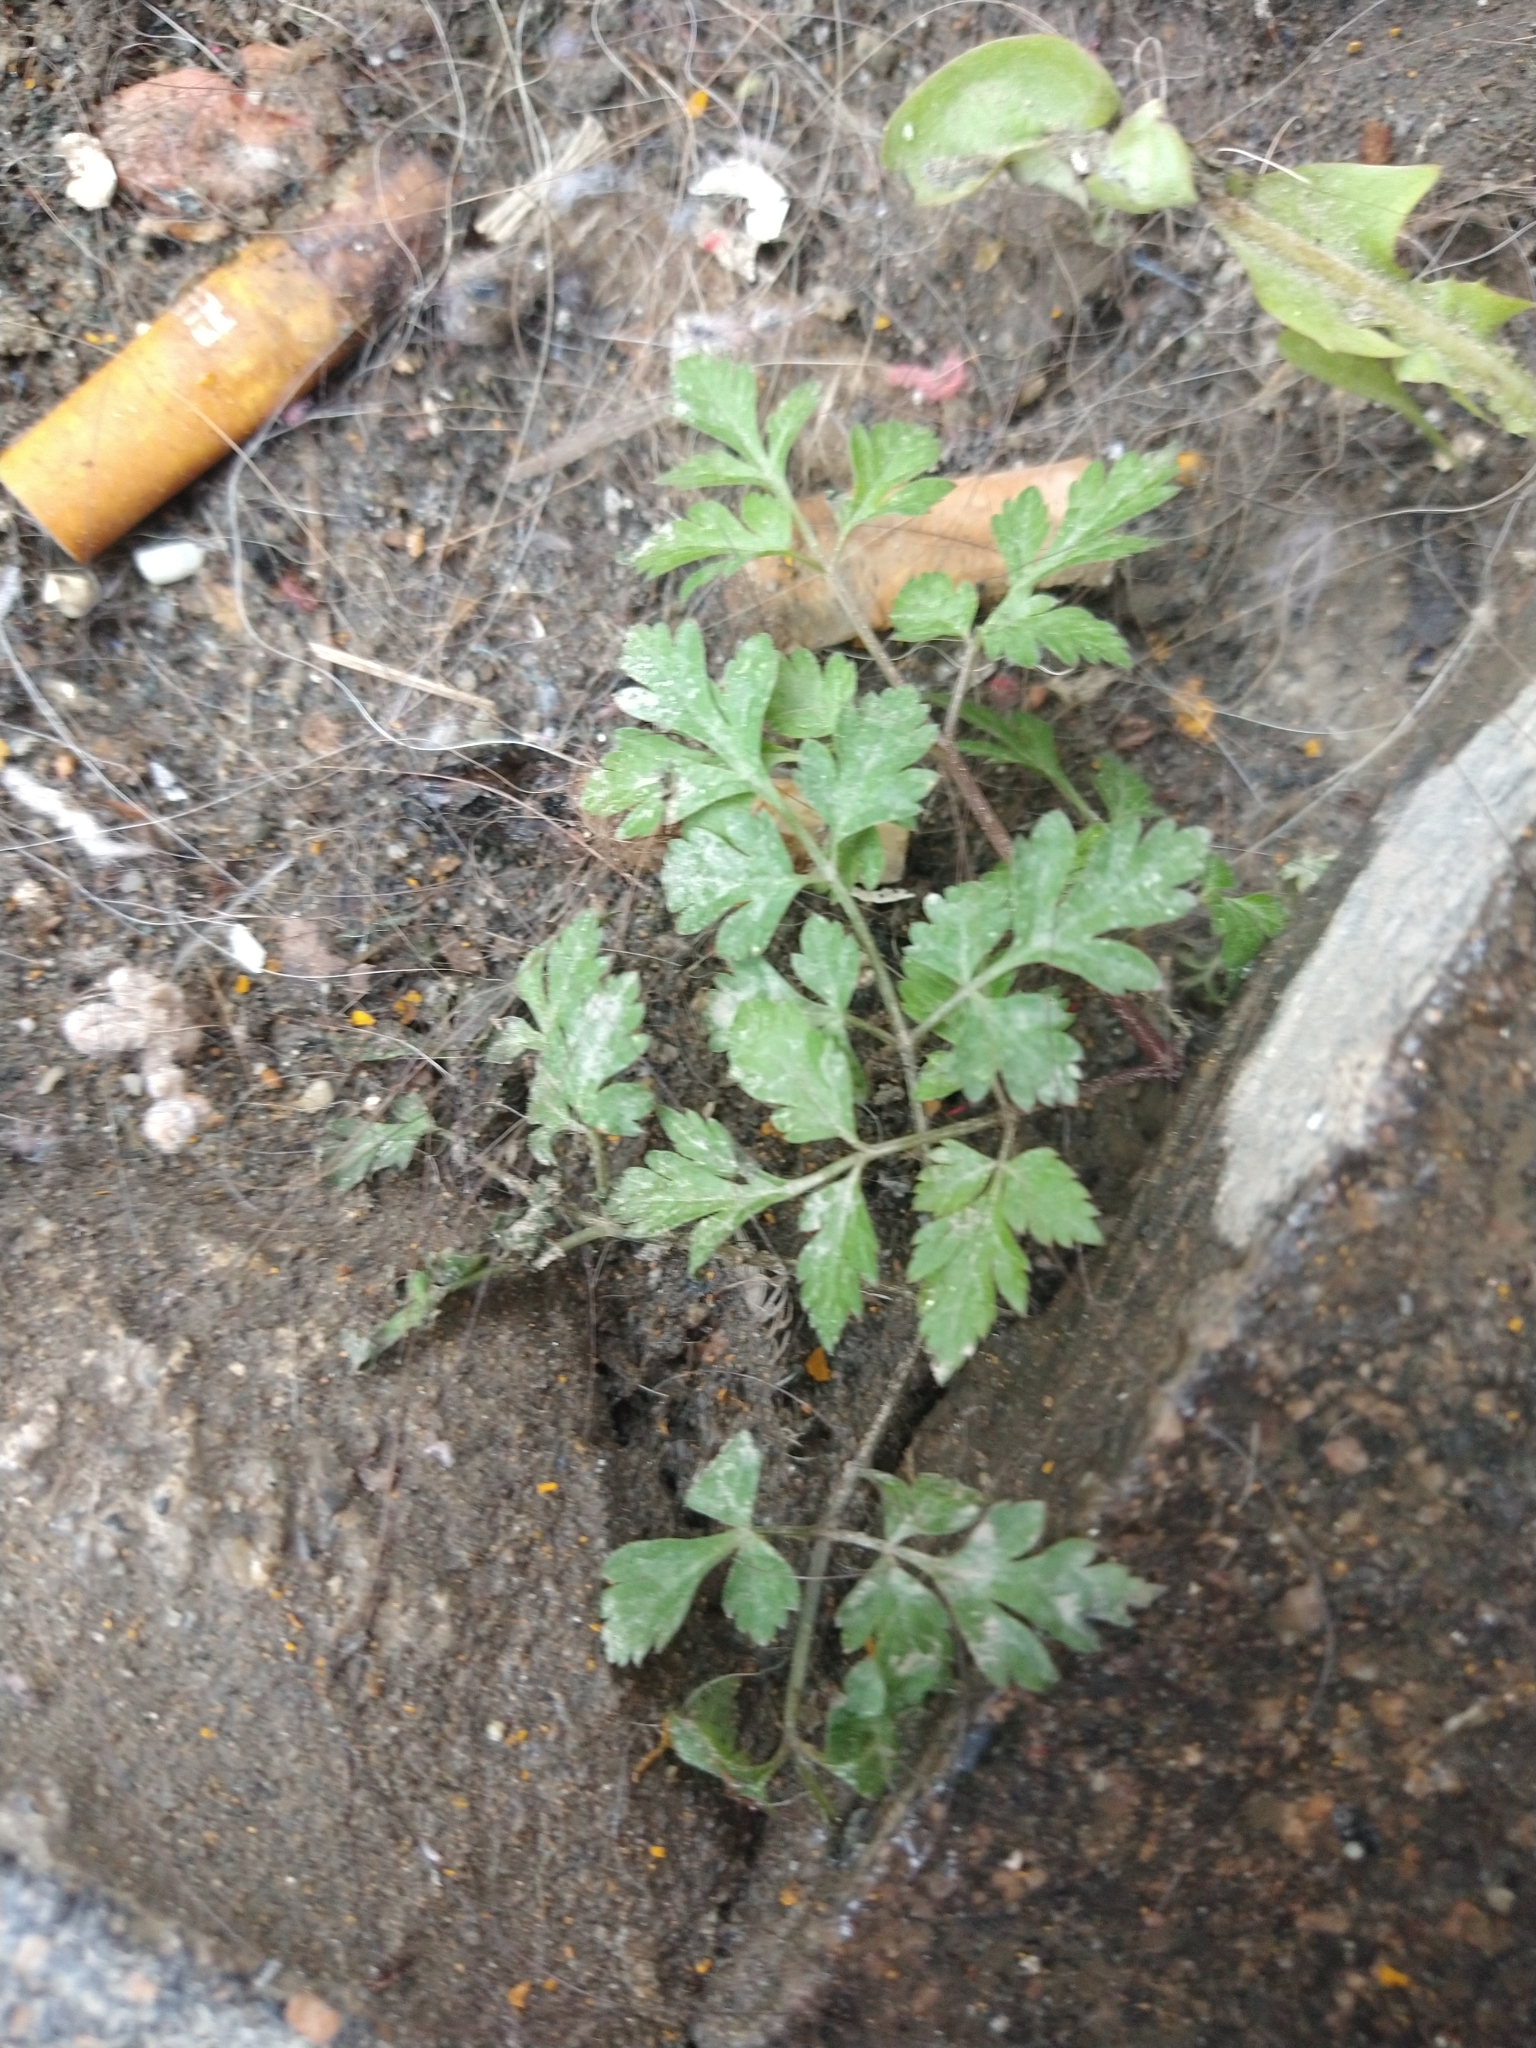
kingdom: Plantae
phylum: Tracheophyta
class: Magnoliopsida
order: Apiales
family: Apiaceae
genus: Osmorhiza
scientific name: Osmorhiza berteroi
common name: Mountain sweet cicely
